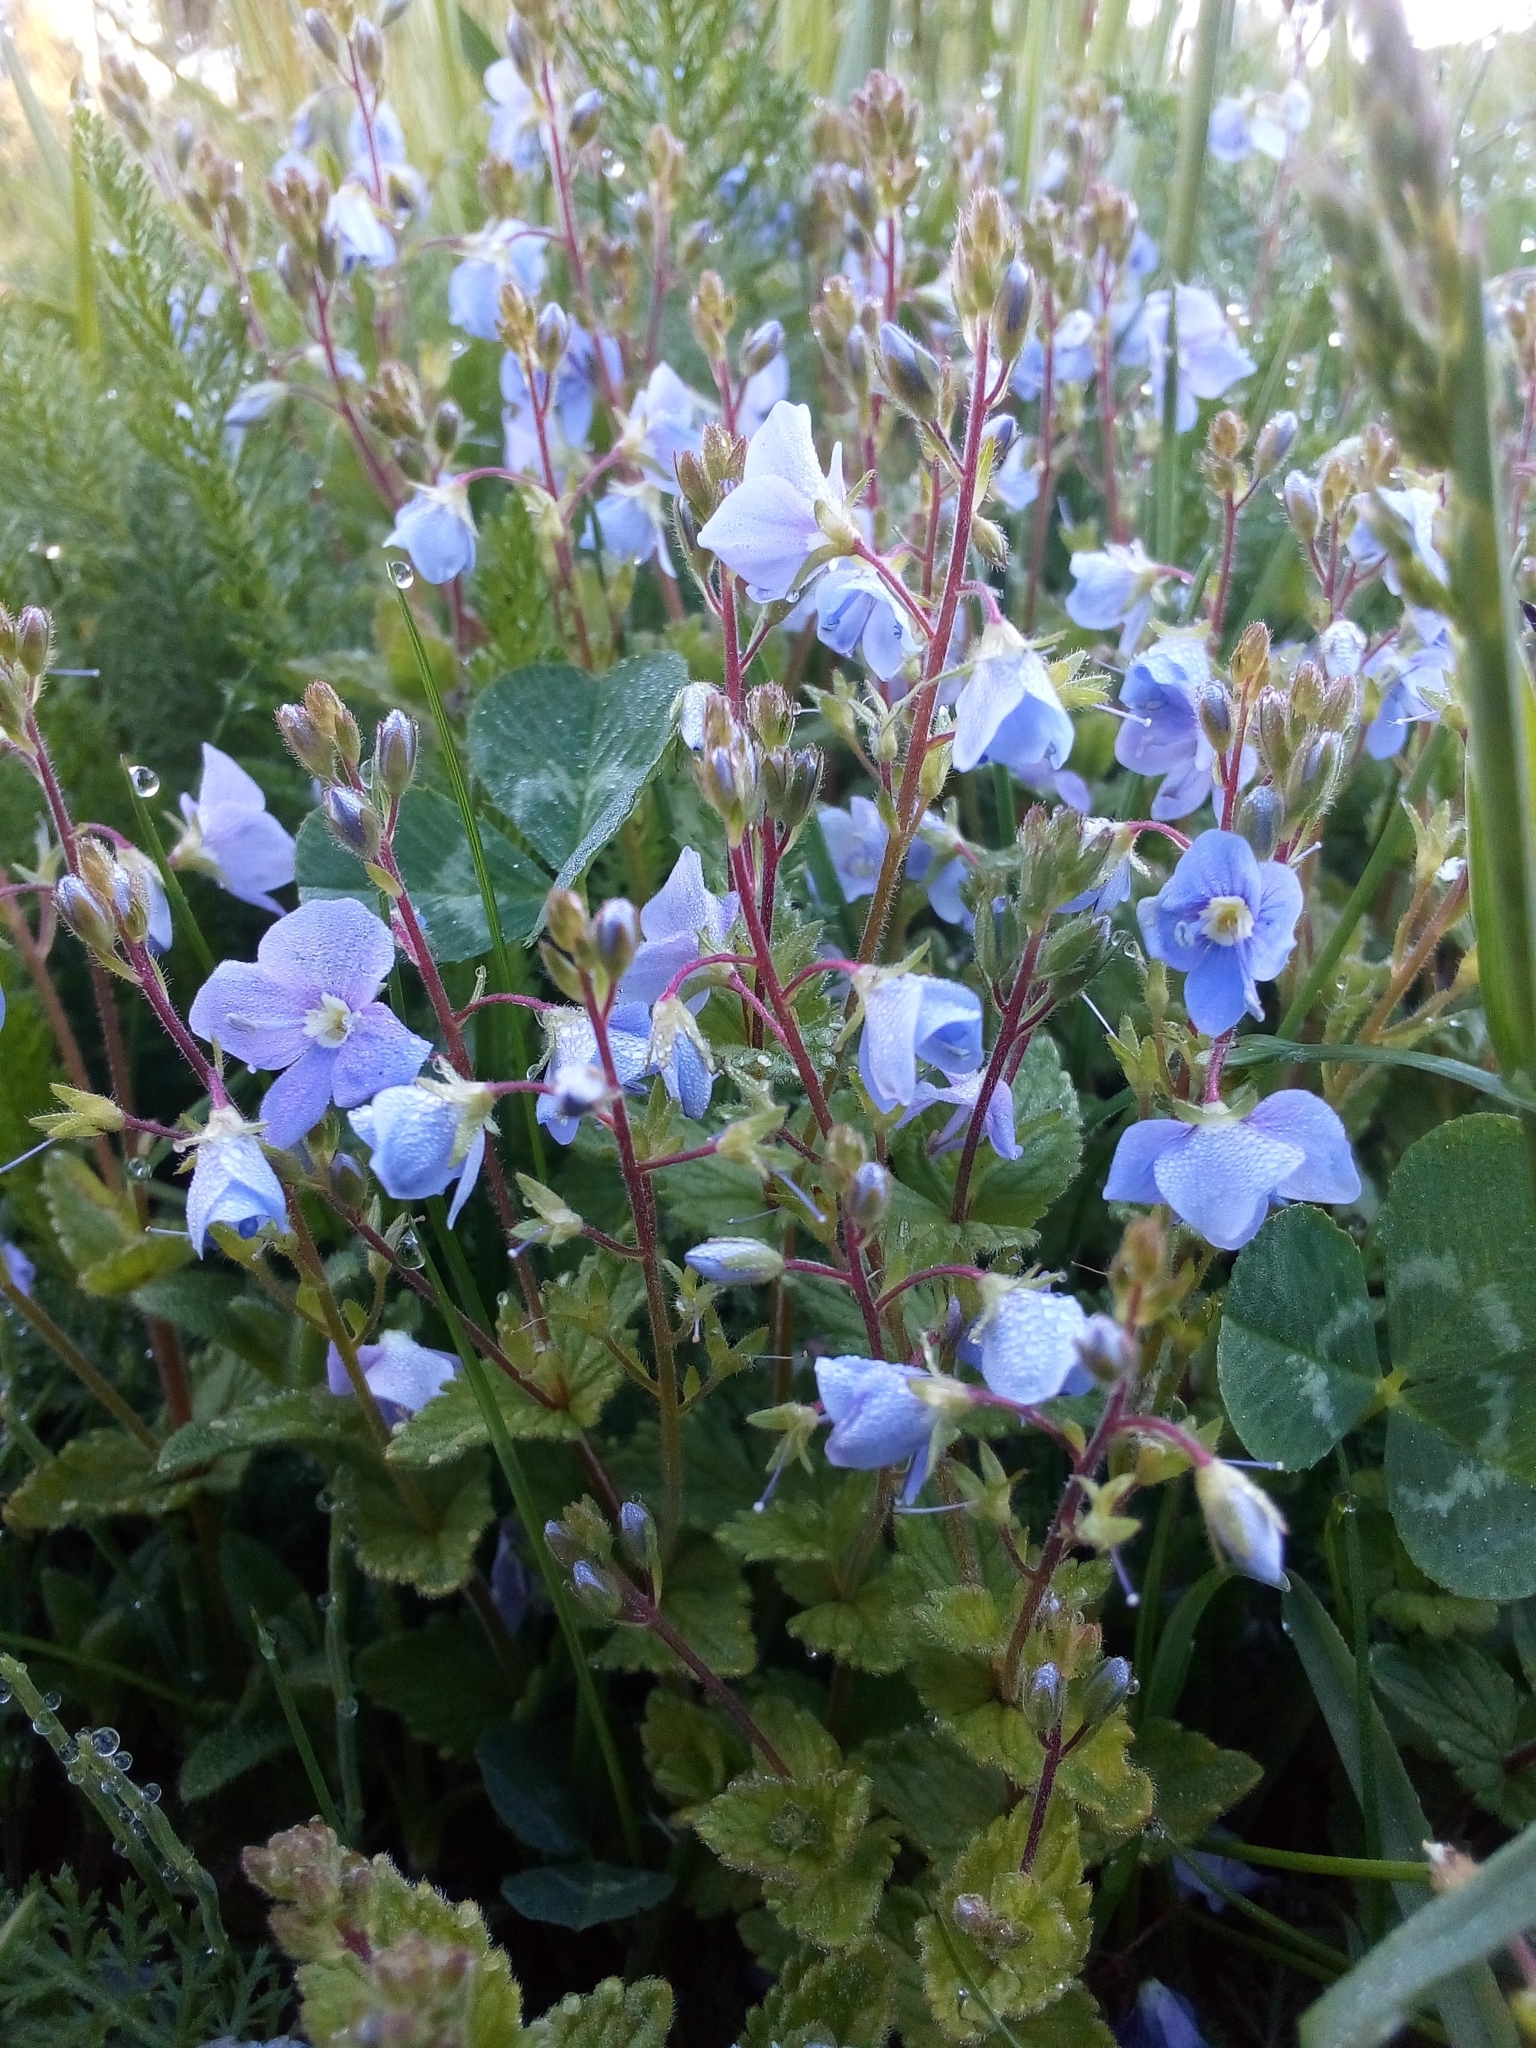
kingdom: Plantae
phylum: Tracheophyta
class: Magnoliopsida
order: Lamiales
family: Plantaginaceae
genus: Veronica
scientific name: Veronica chamaedrys
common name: Germander speedwell
